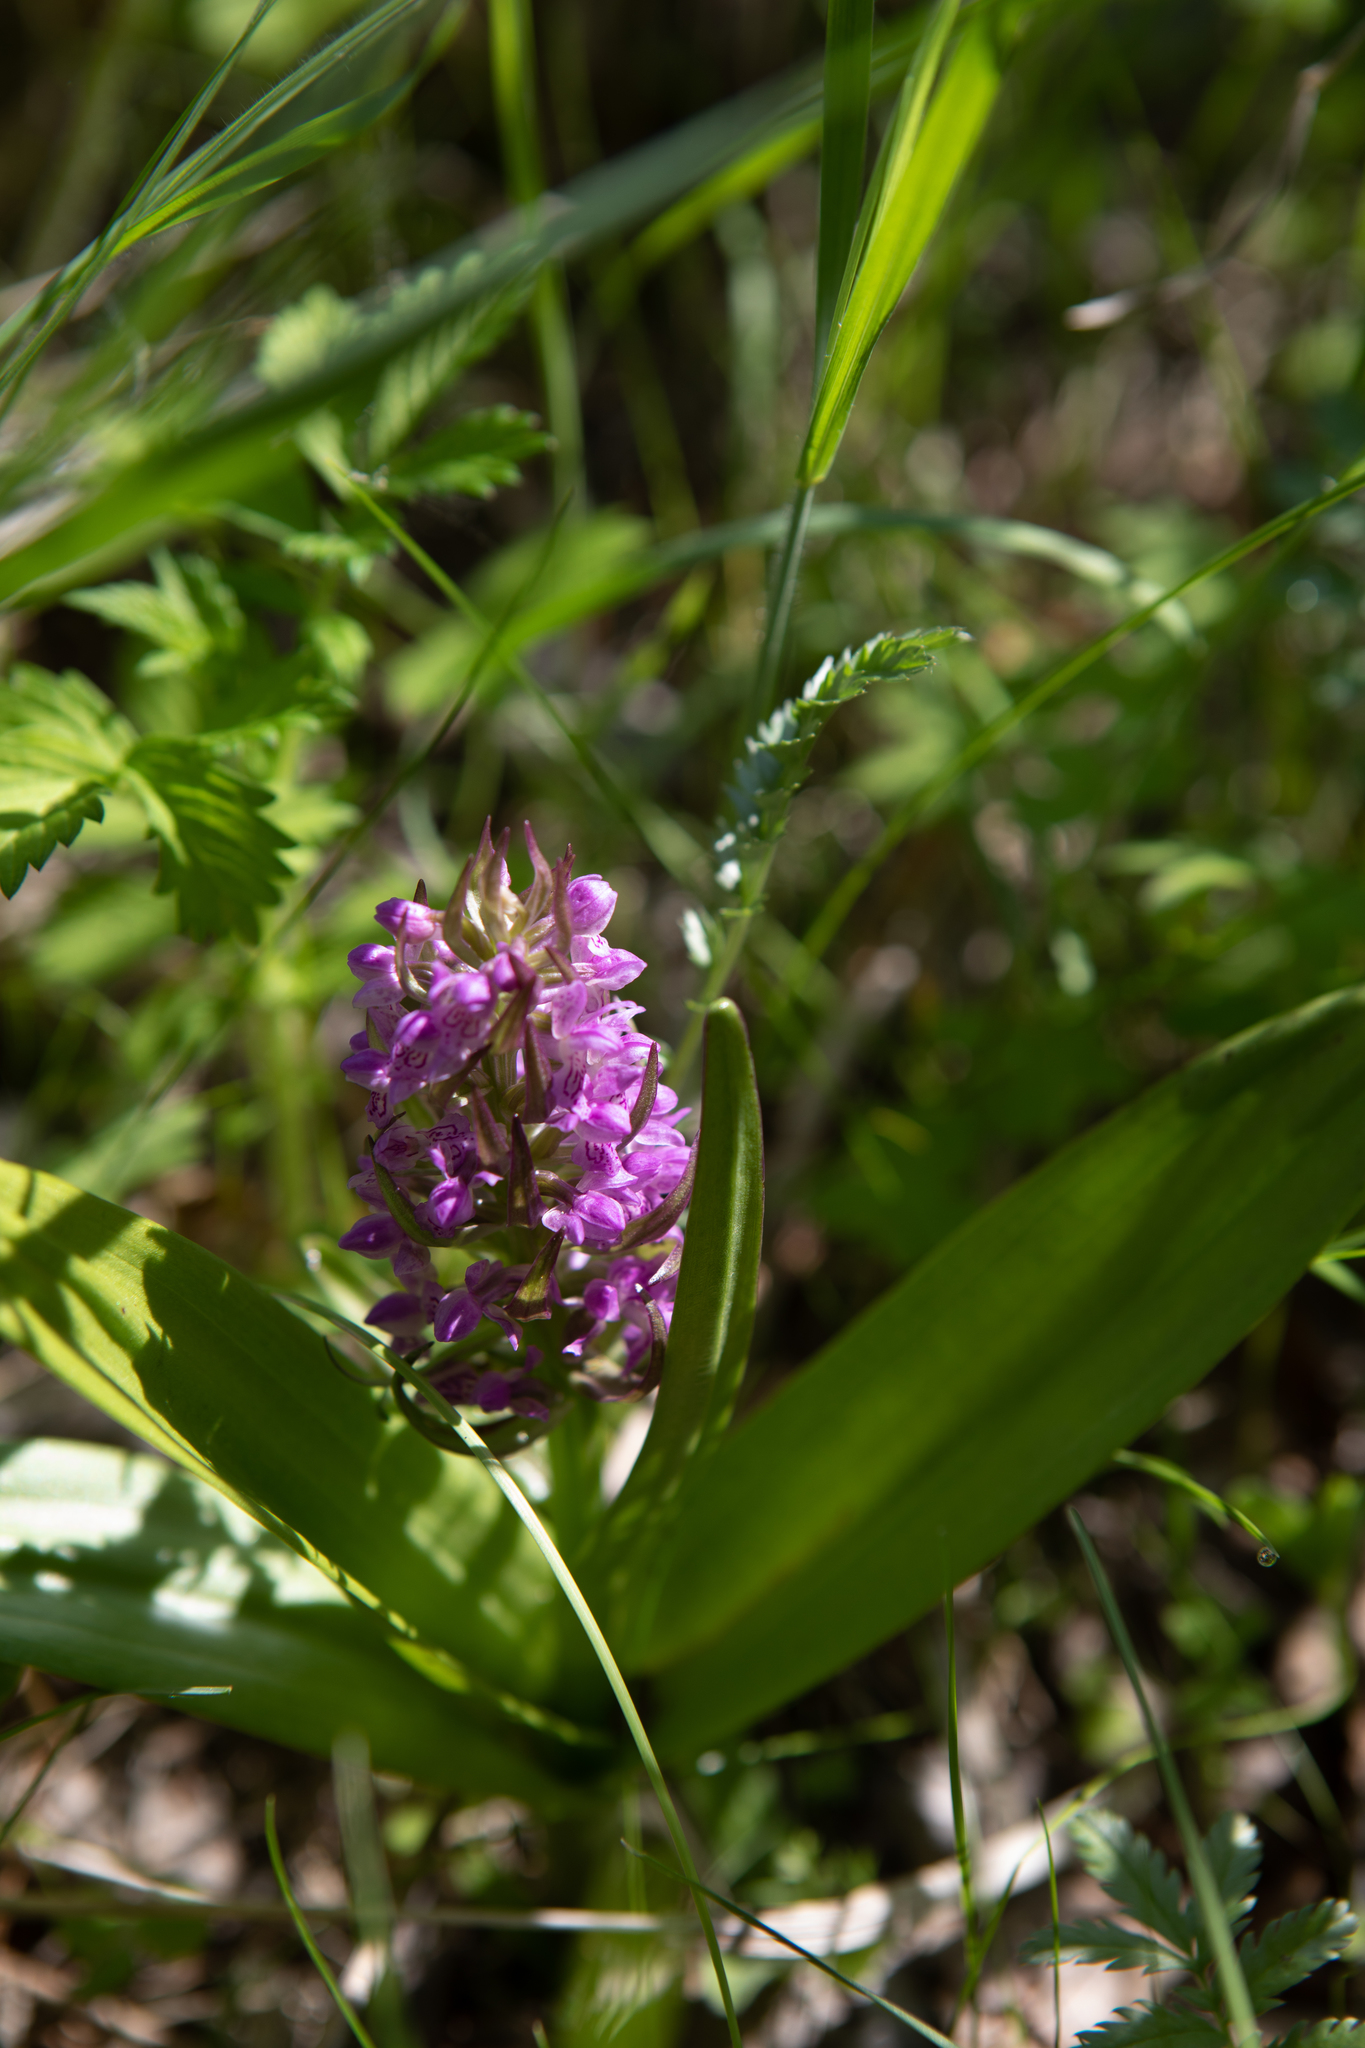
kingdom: Plantae
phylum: Tracheophyta
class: Liliopsida
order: Asparagales
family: Orchidaceae
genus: Dactylorhiza
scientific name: Dactylorhiza incarnata
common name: Early marsh-orchid
